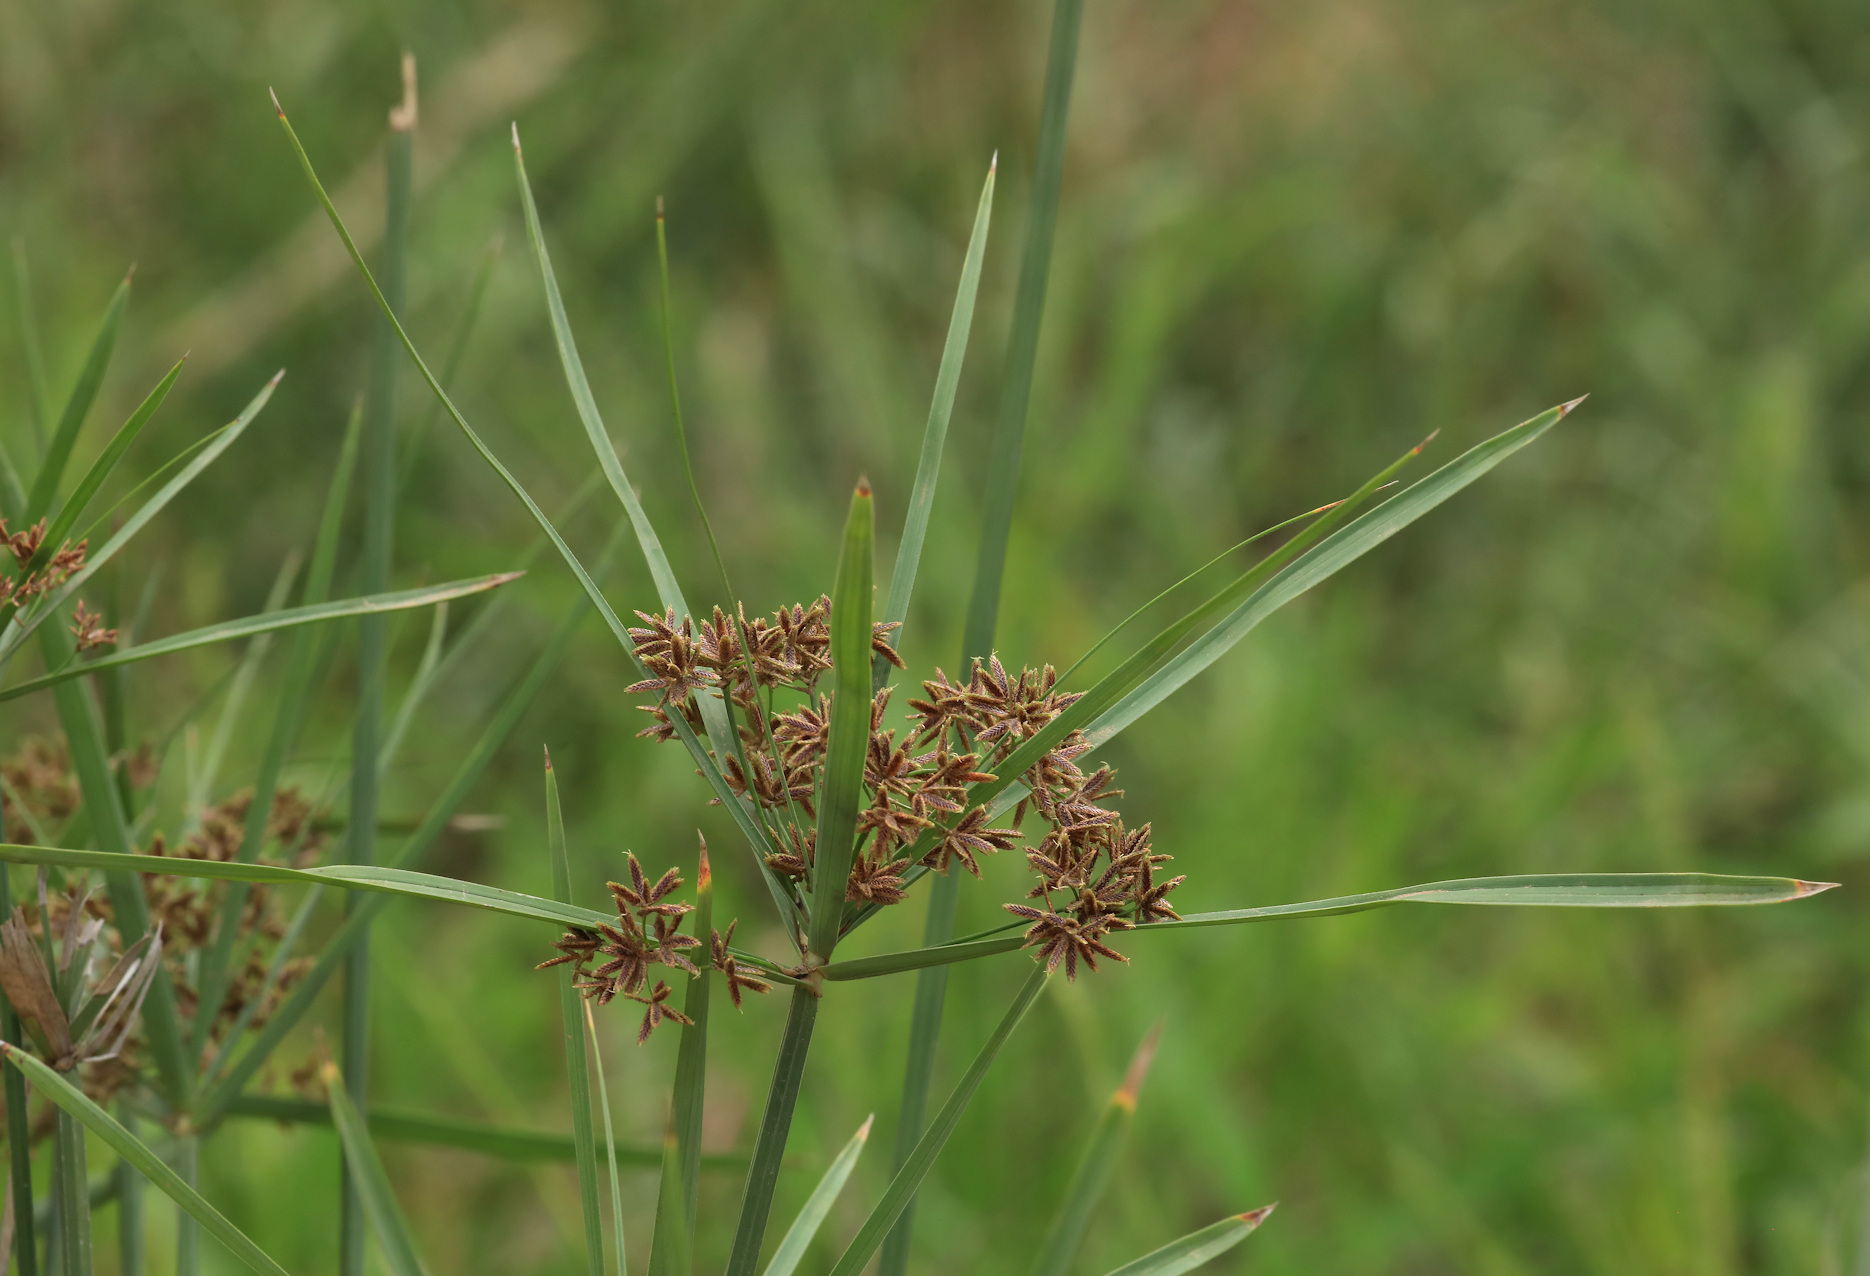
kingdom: Plantae
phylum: Tracheophyta
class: Liliopsida
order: Poales
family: Cyperaceae
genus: Cyperus
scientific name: Cyperus sexangularis
